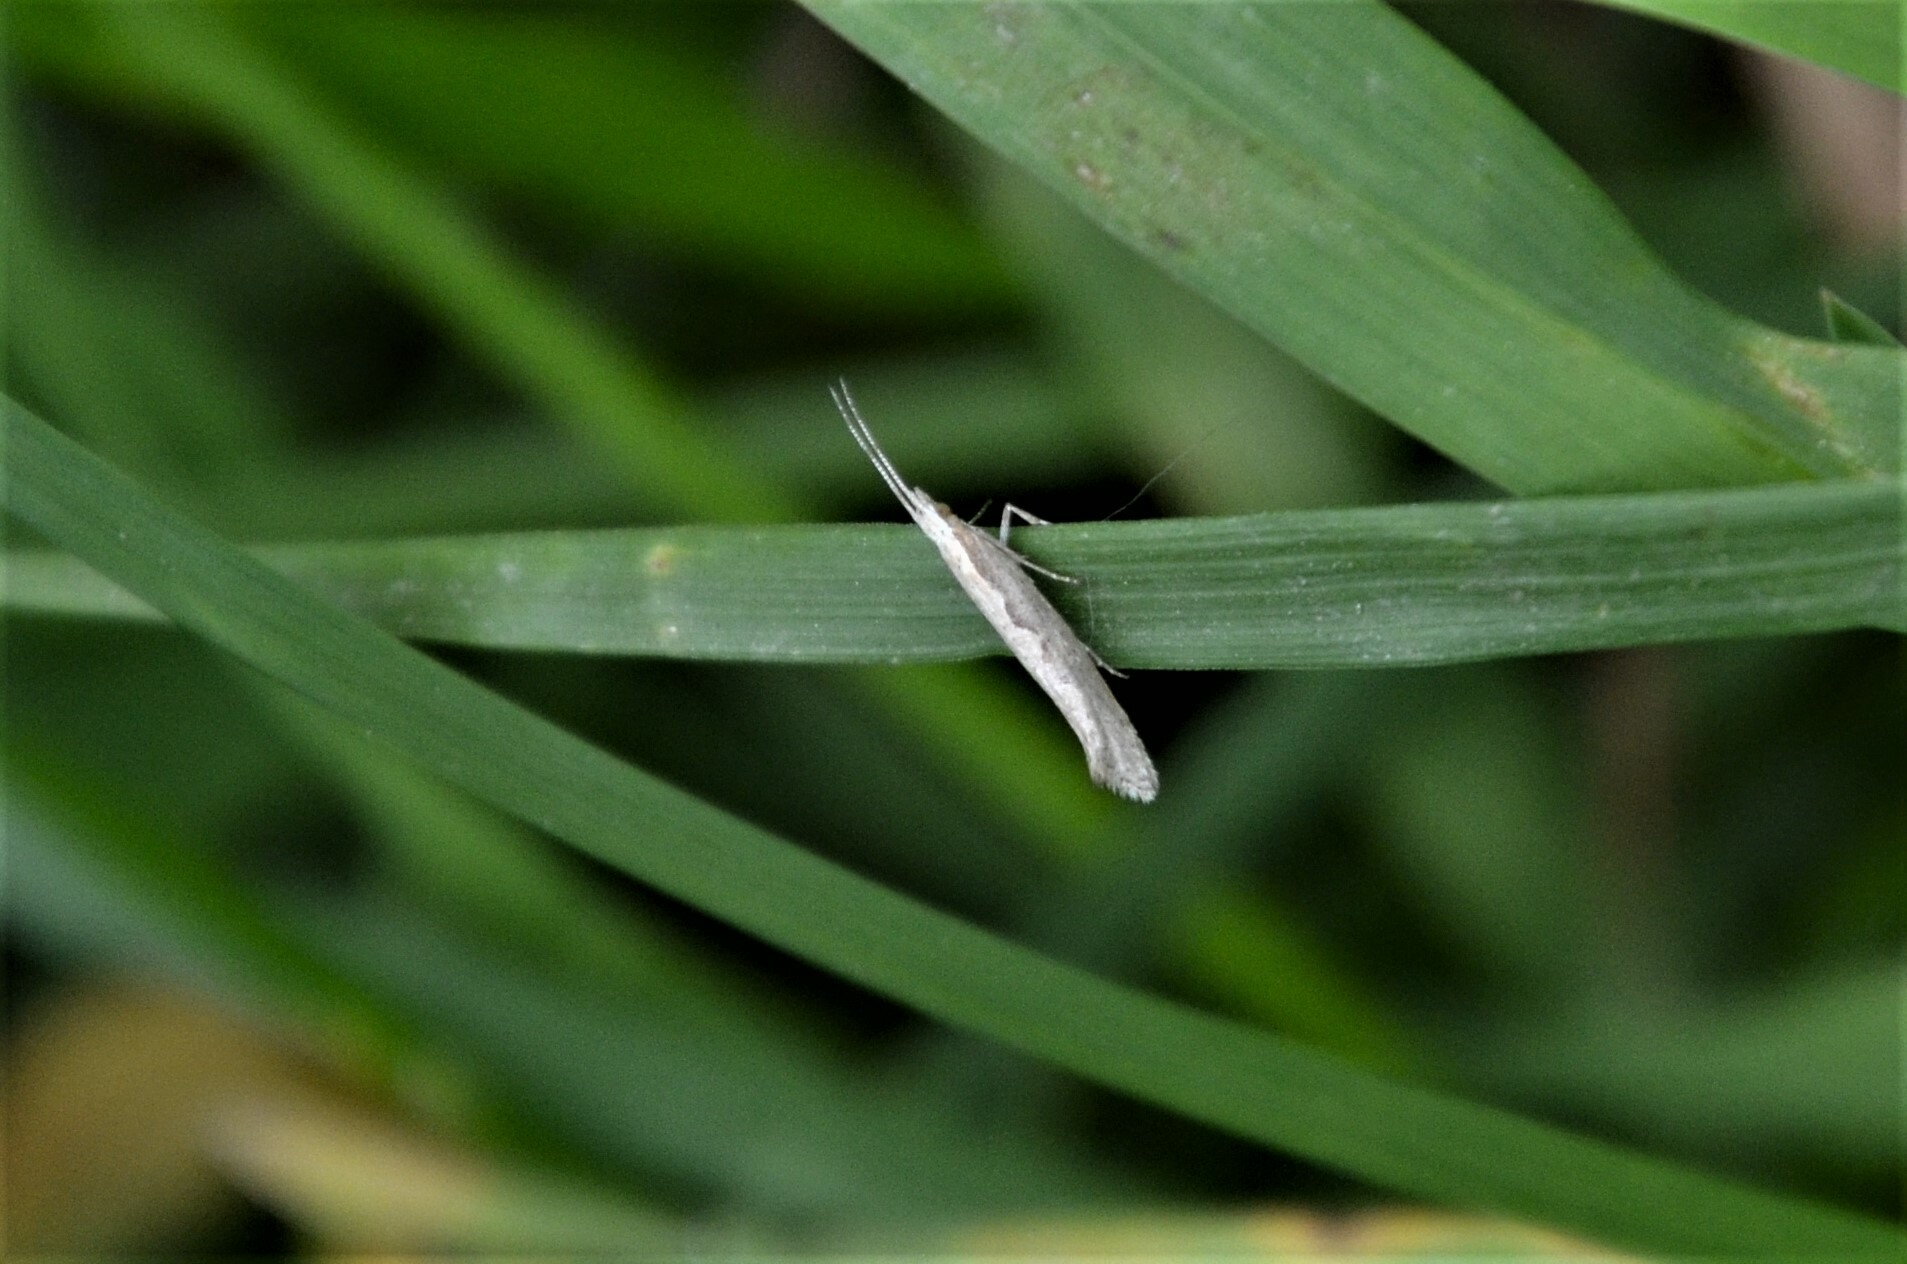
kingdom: Animalia
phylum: Arthropoda
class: Insecta
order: Lepidoptera
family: Plutellidae
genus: Plutella
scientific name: Plutella xylostella
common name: Diamond-back moth
